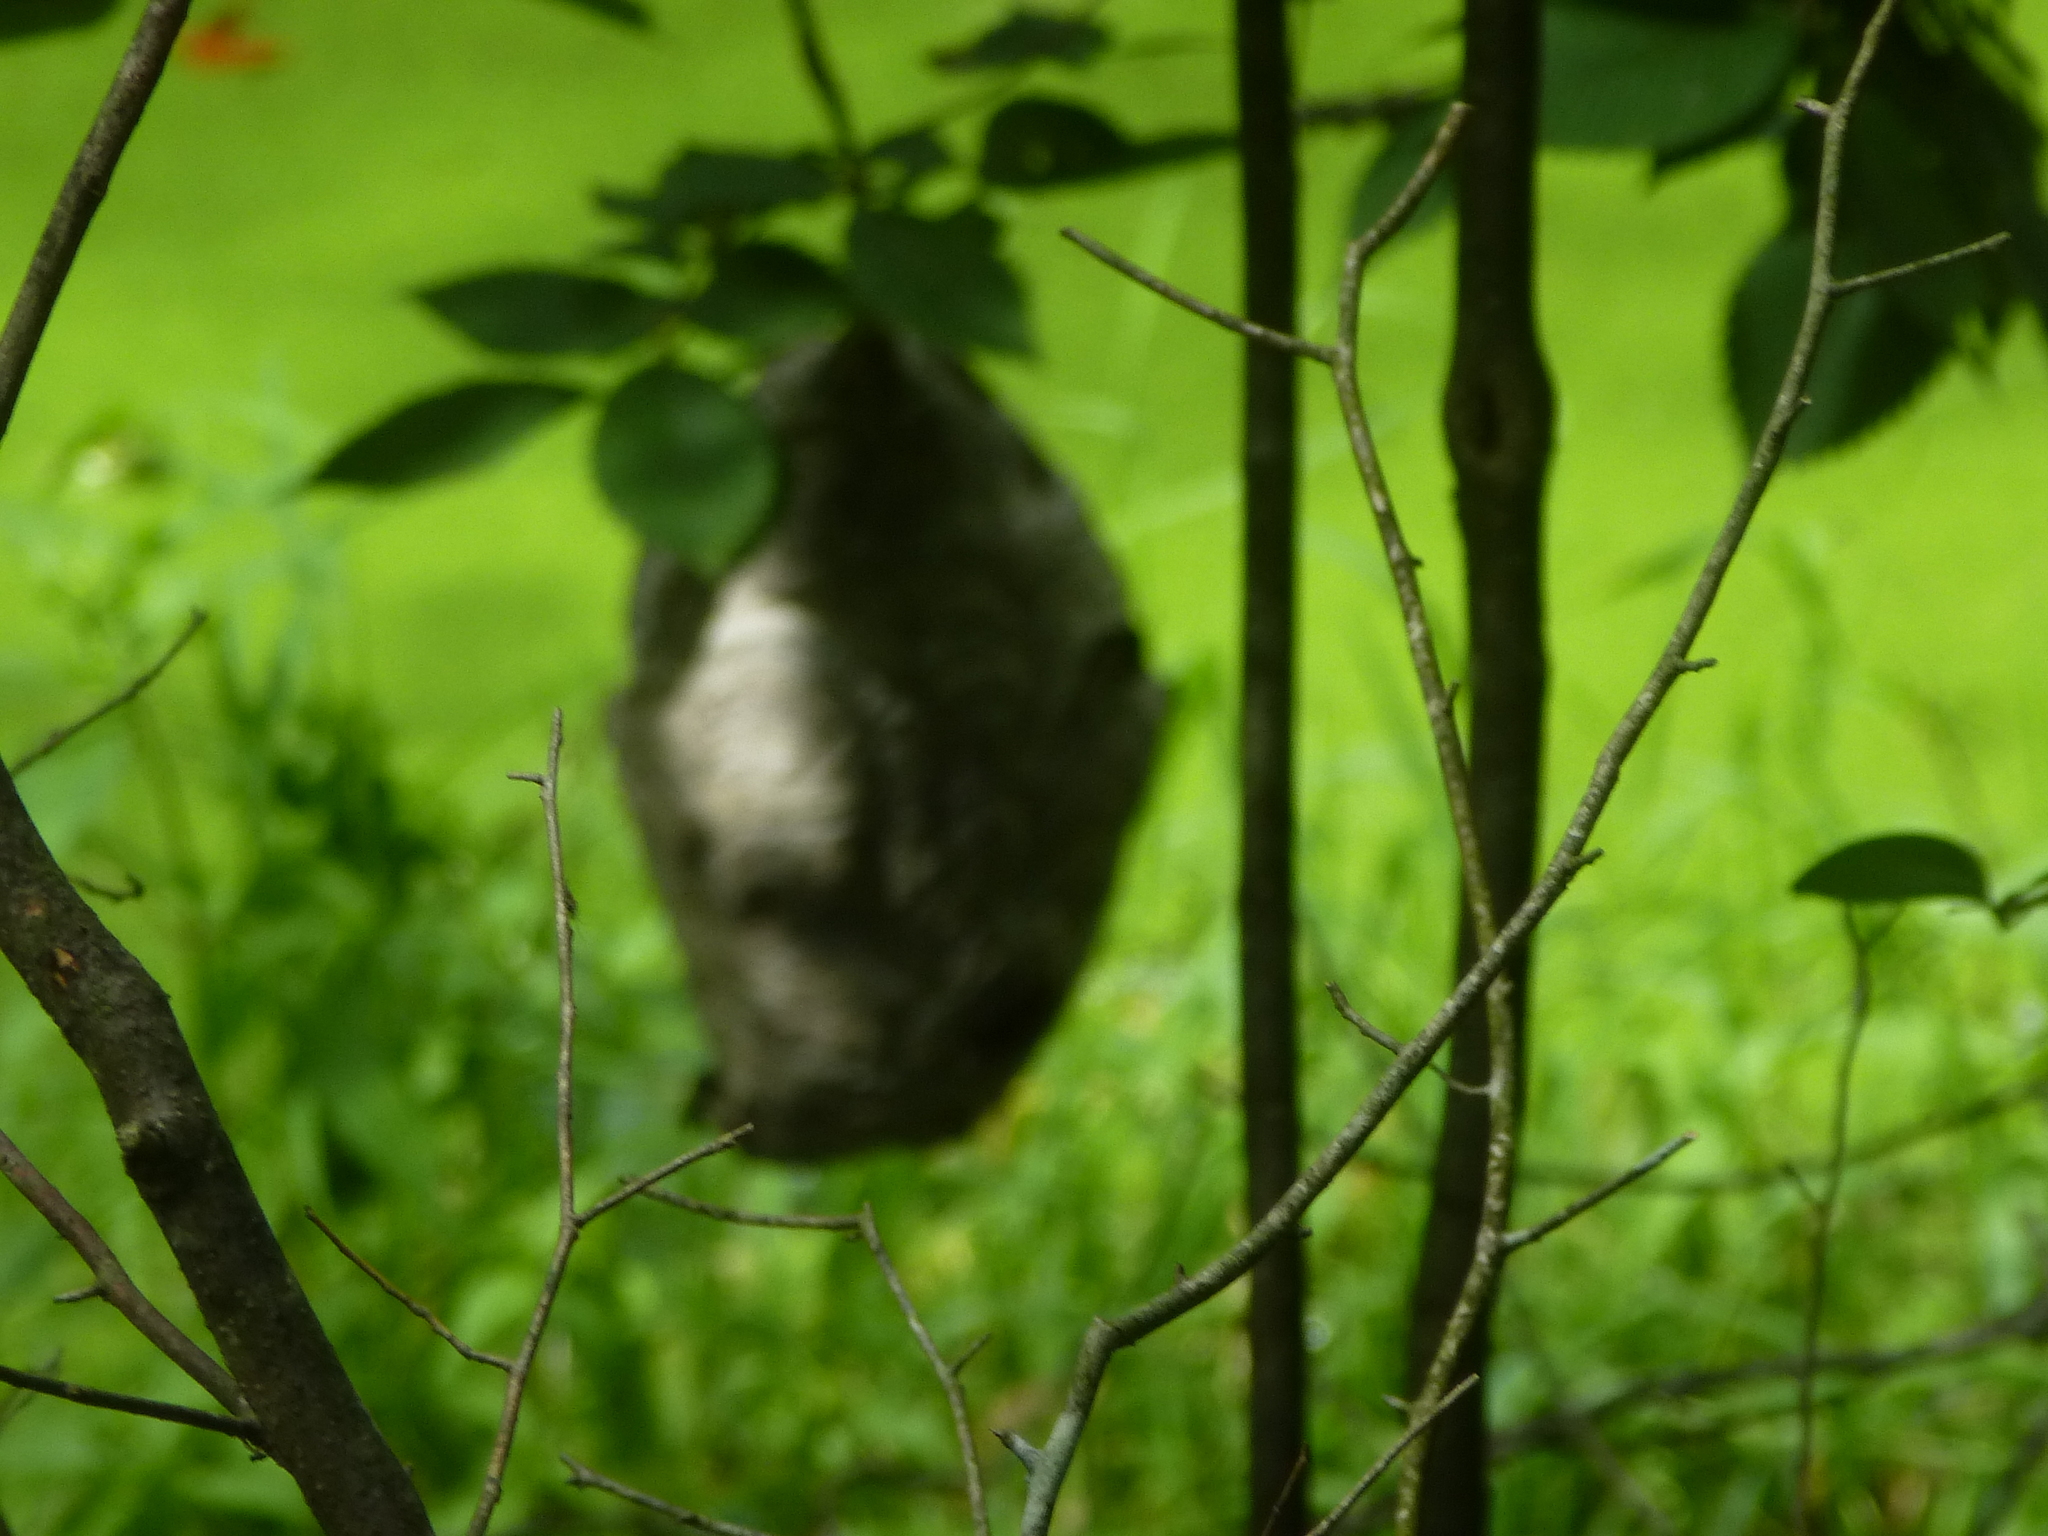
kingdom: Animalia
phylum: Arthropoda
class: Insecta
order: Hymenoptera
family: Vespidae
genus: Dolichovespula
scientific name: Dolichovespula
